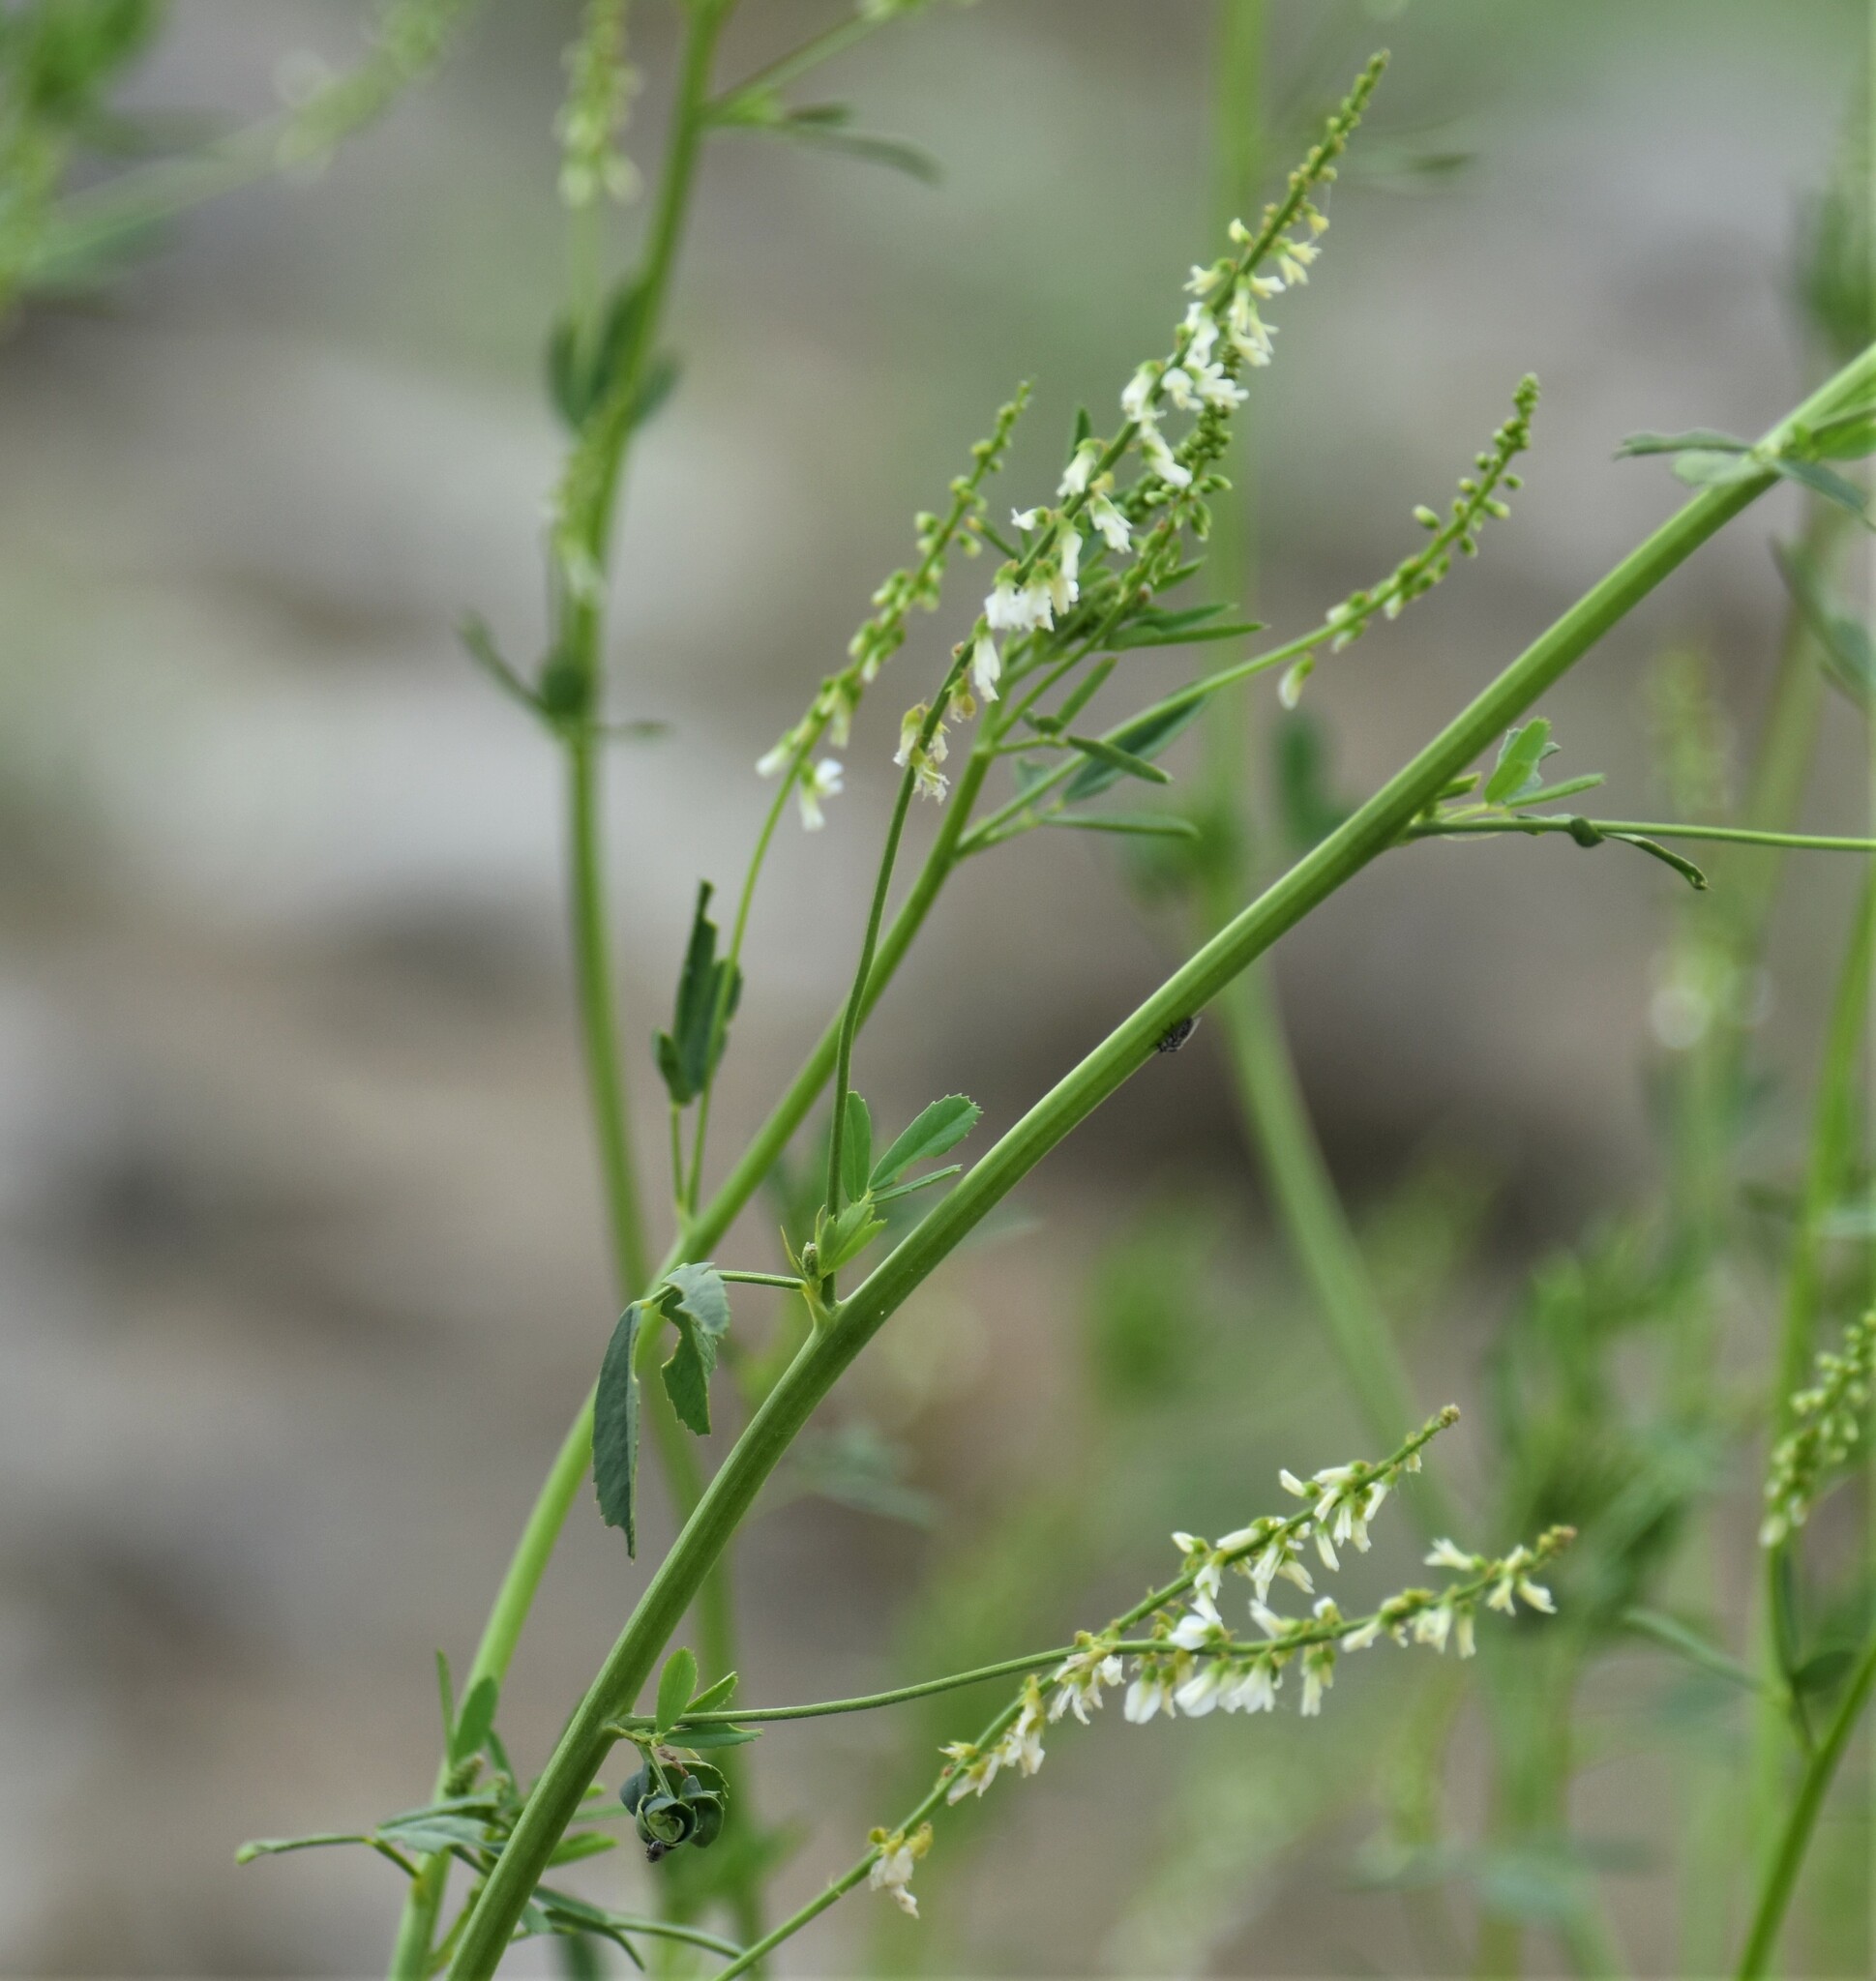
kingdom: Plantae
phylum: Tracheophyta
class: Magnoliopsida
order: Fabales
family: Fabaceae
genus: Melilotus
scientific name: Melilotus albus
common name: White melilot
